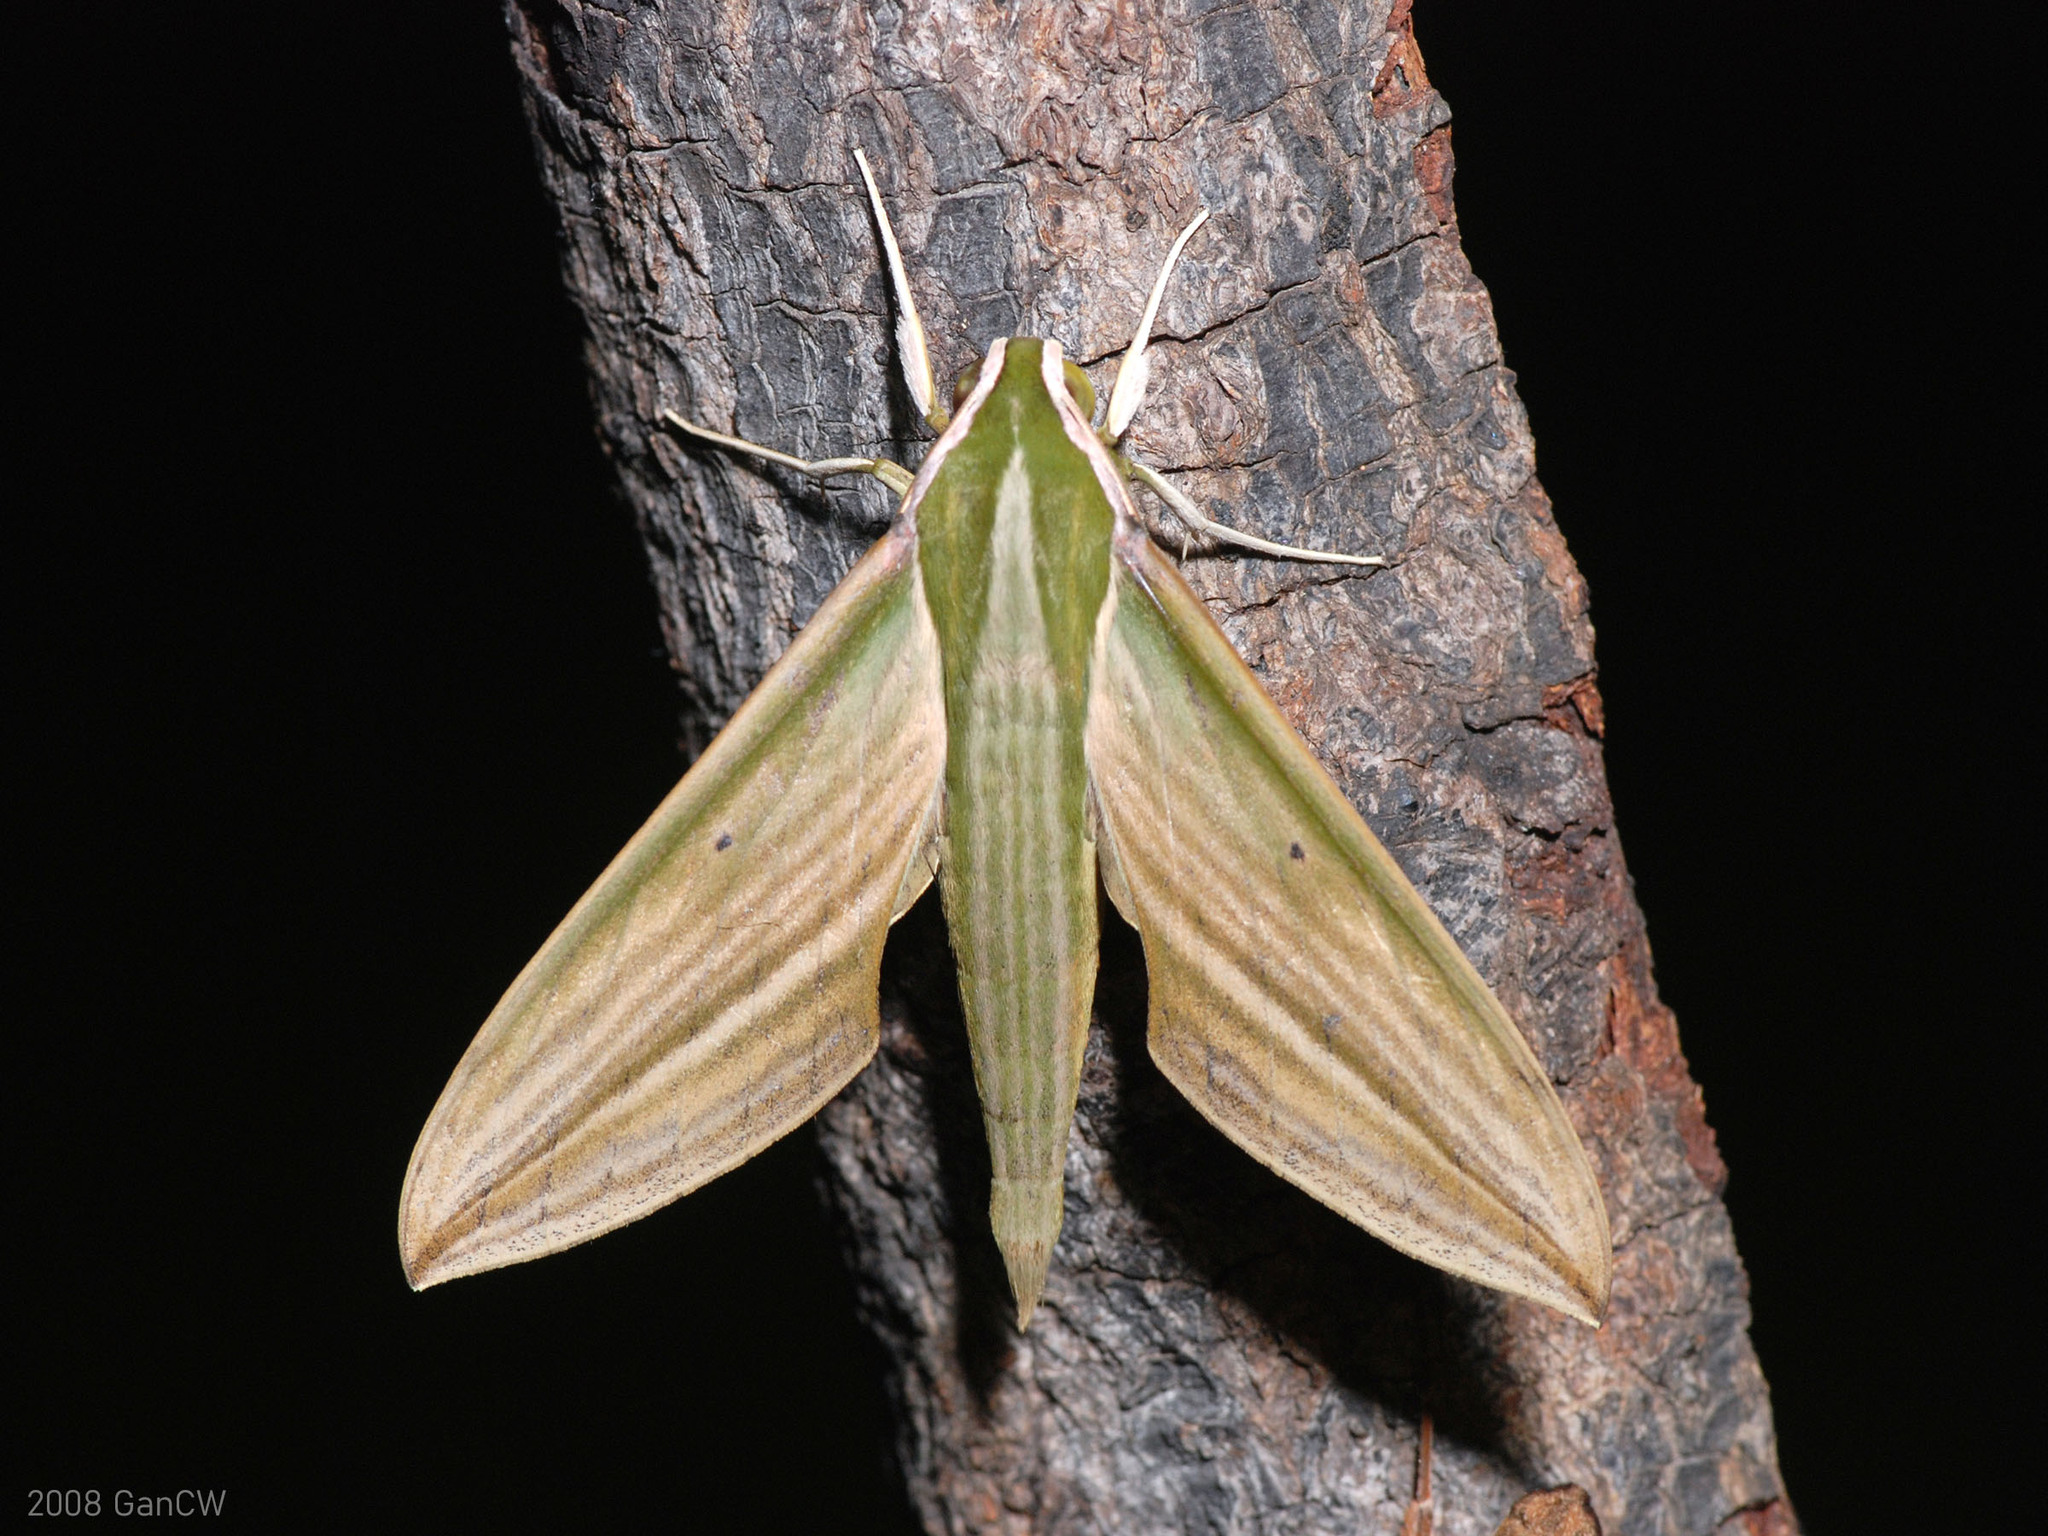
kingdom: Animalia
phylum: Arthropoda
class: Insecta
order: Lepidoptera
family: Sphingidae
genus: Cechetra
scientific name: Cechetra lineosa
